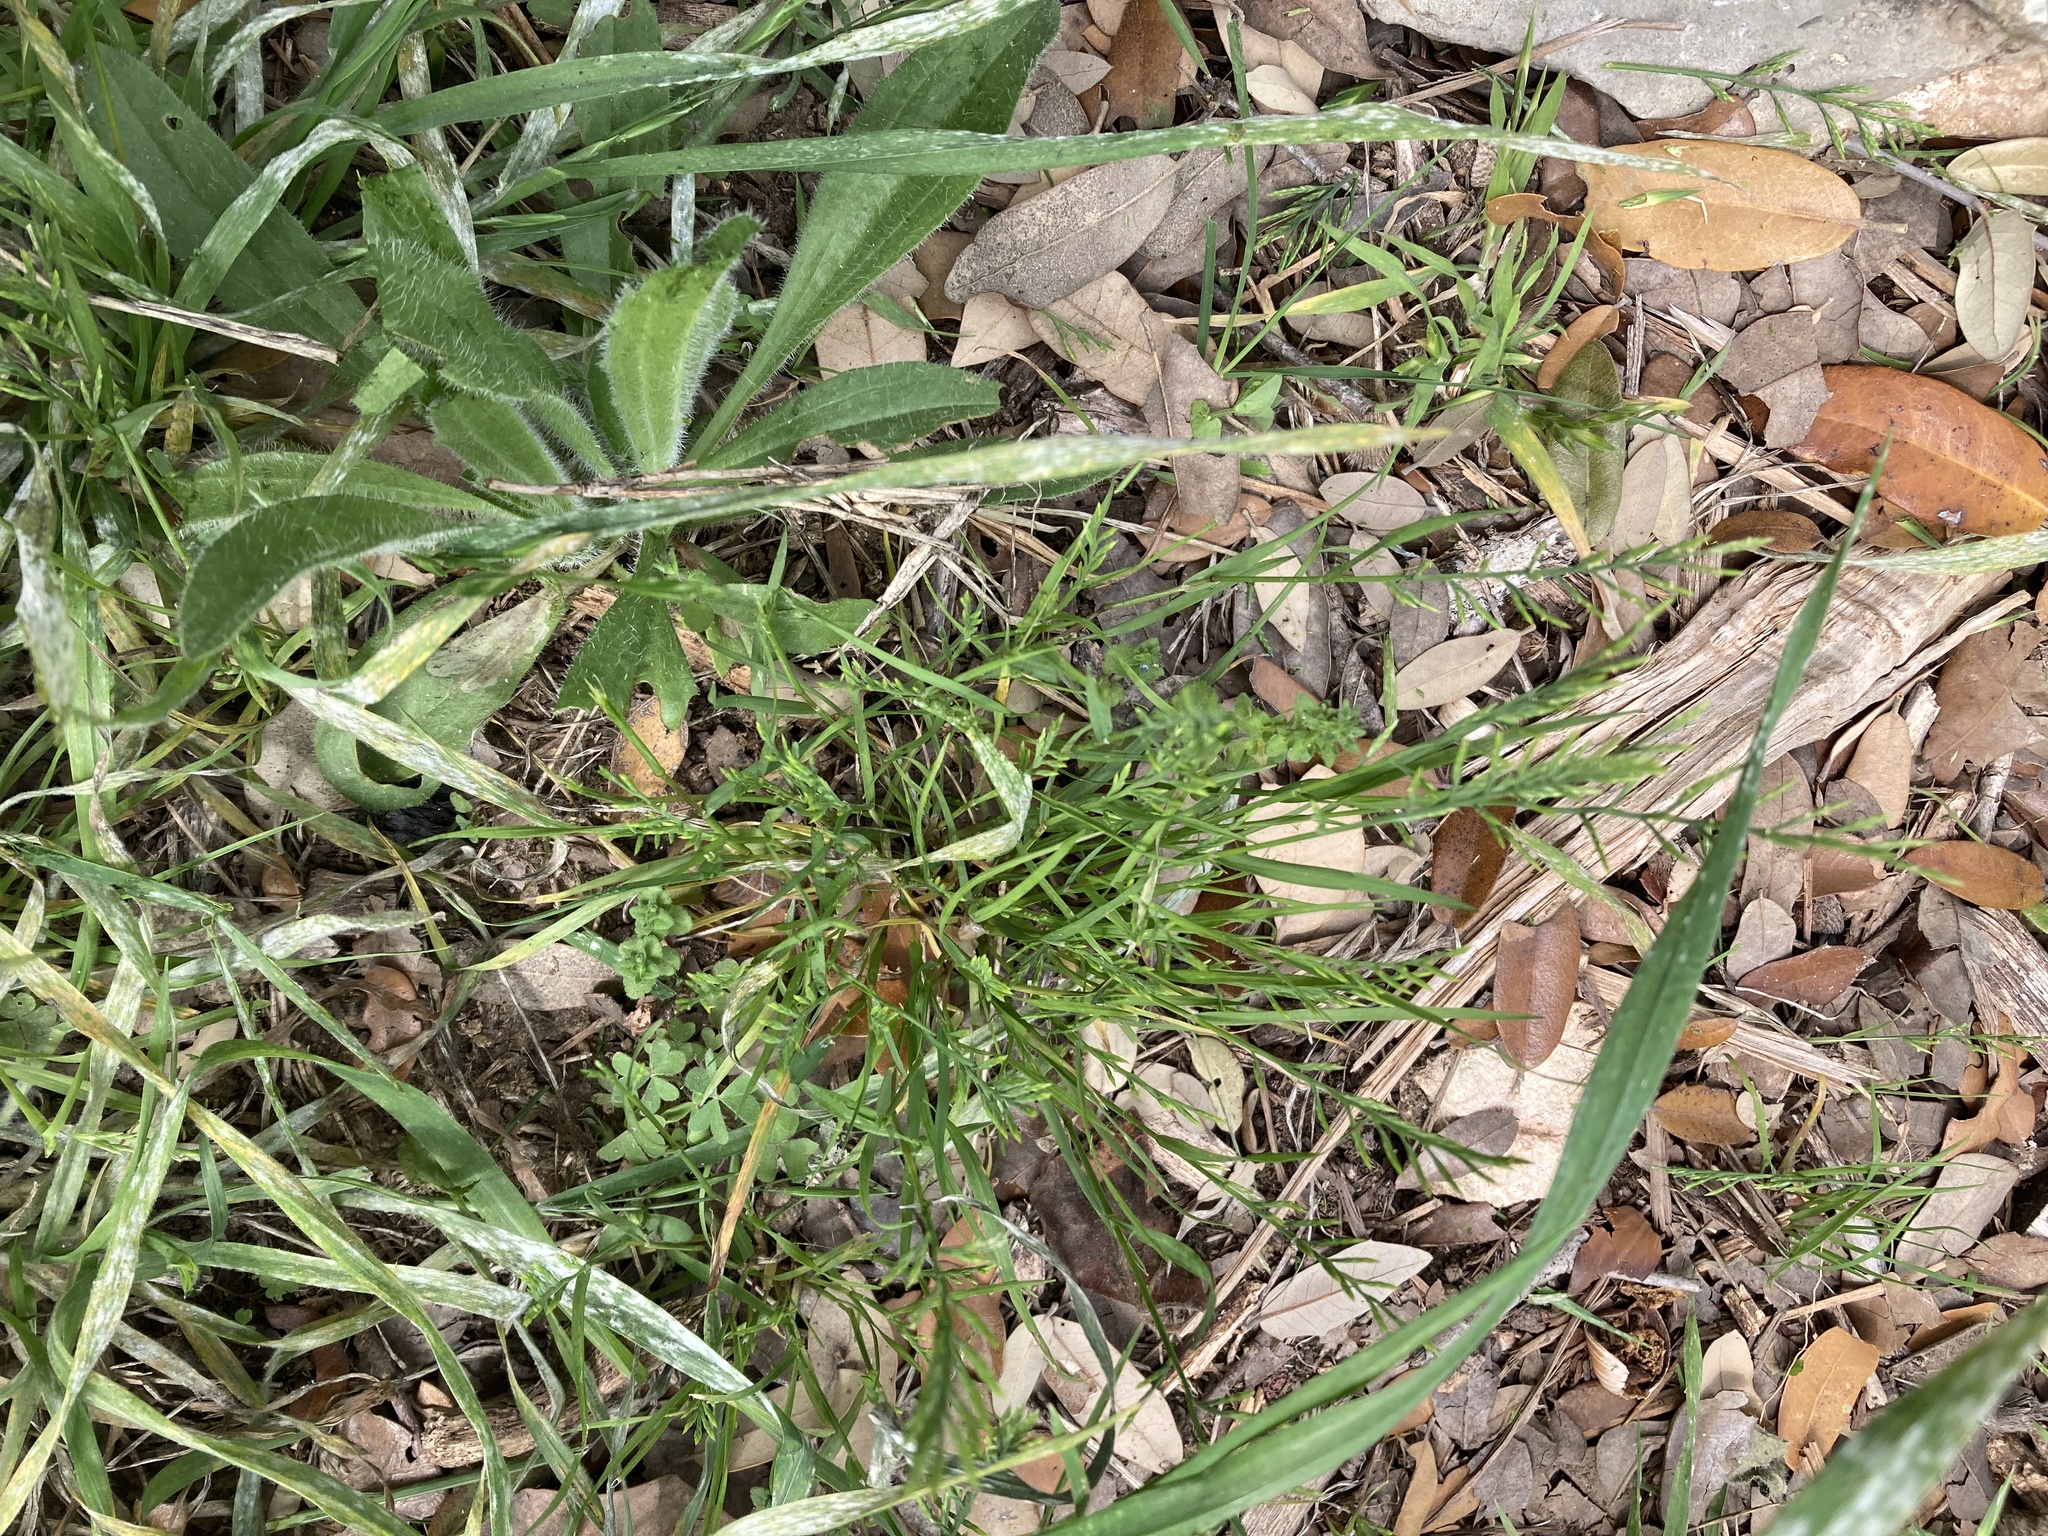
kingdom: Plantae
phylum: Tracheophyta
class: Liliopsida
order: Poales
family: Poaceae
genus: Catapodium
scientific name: Catapodium rigidum
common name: Fern-grass
